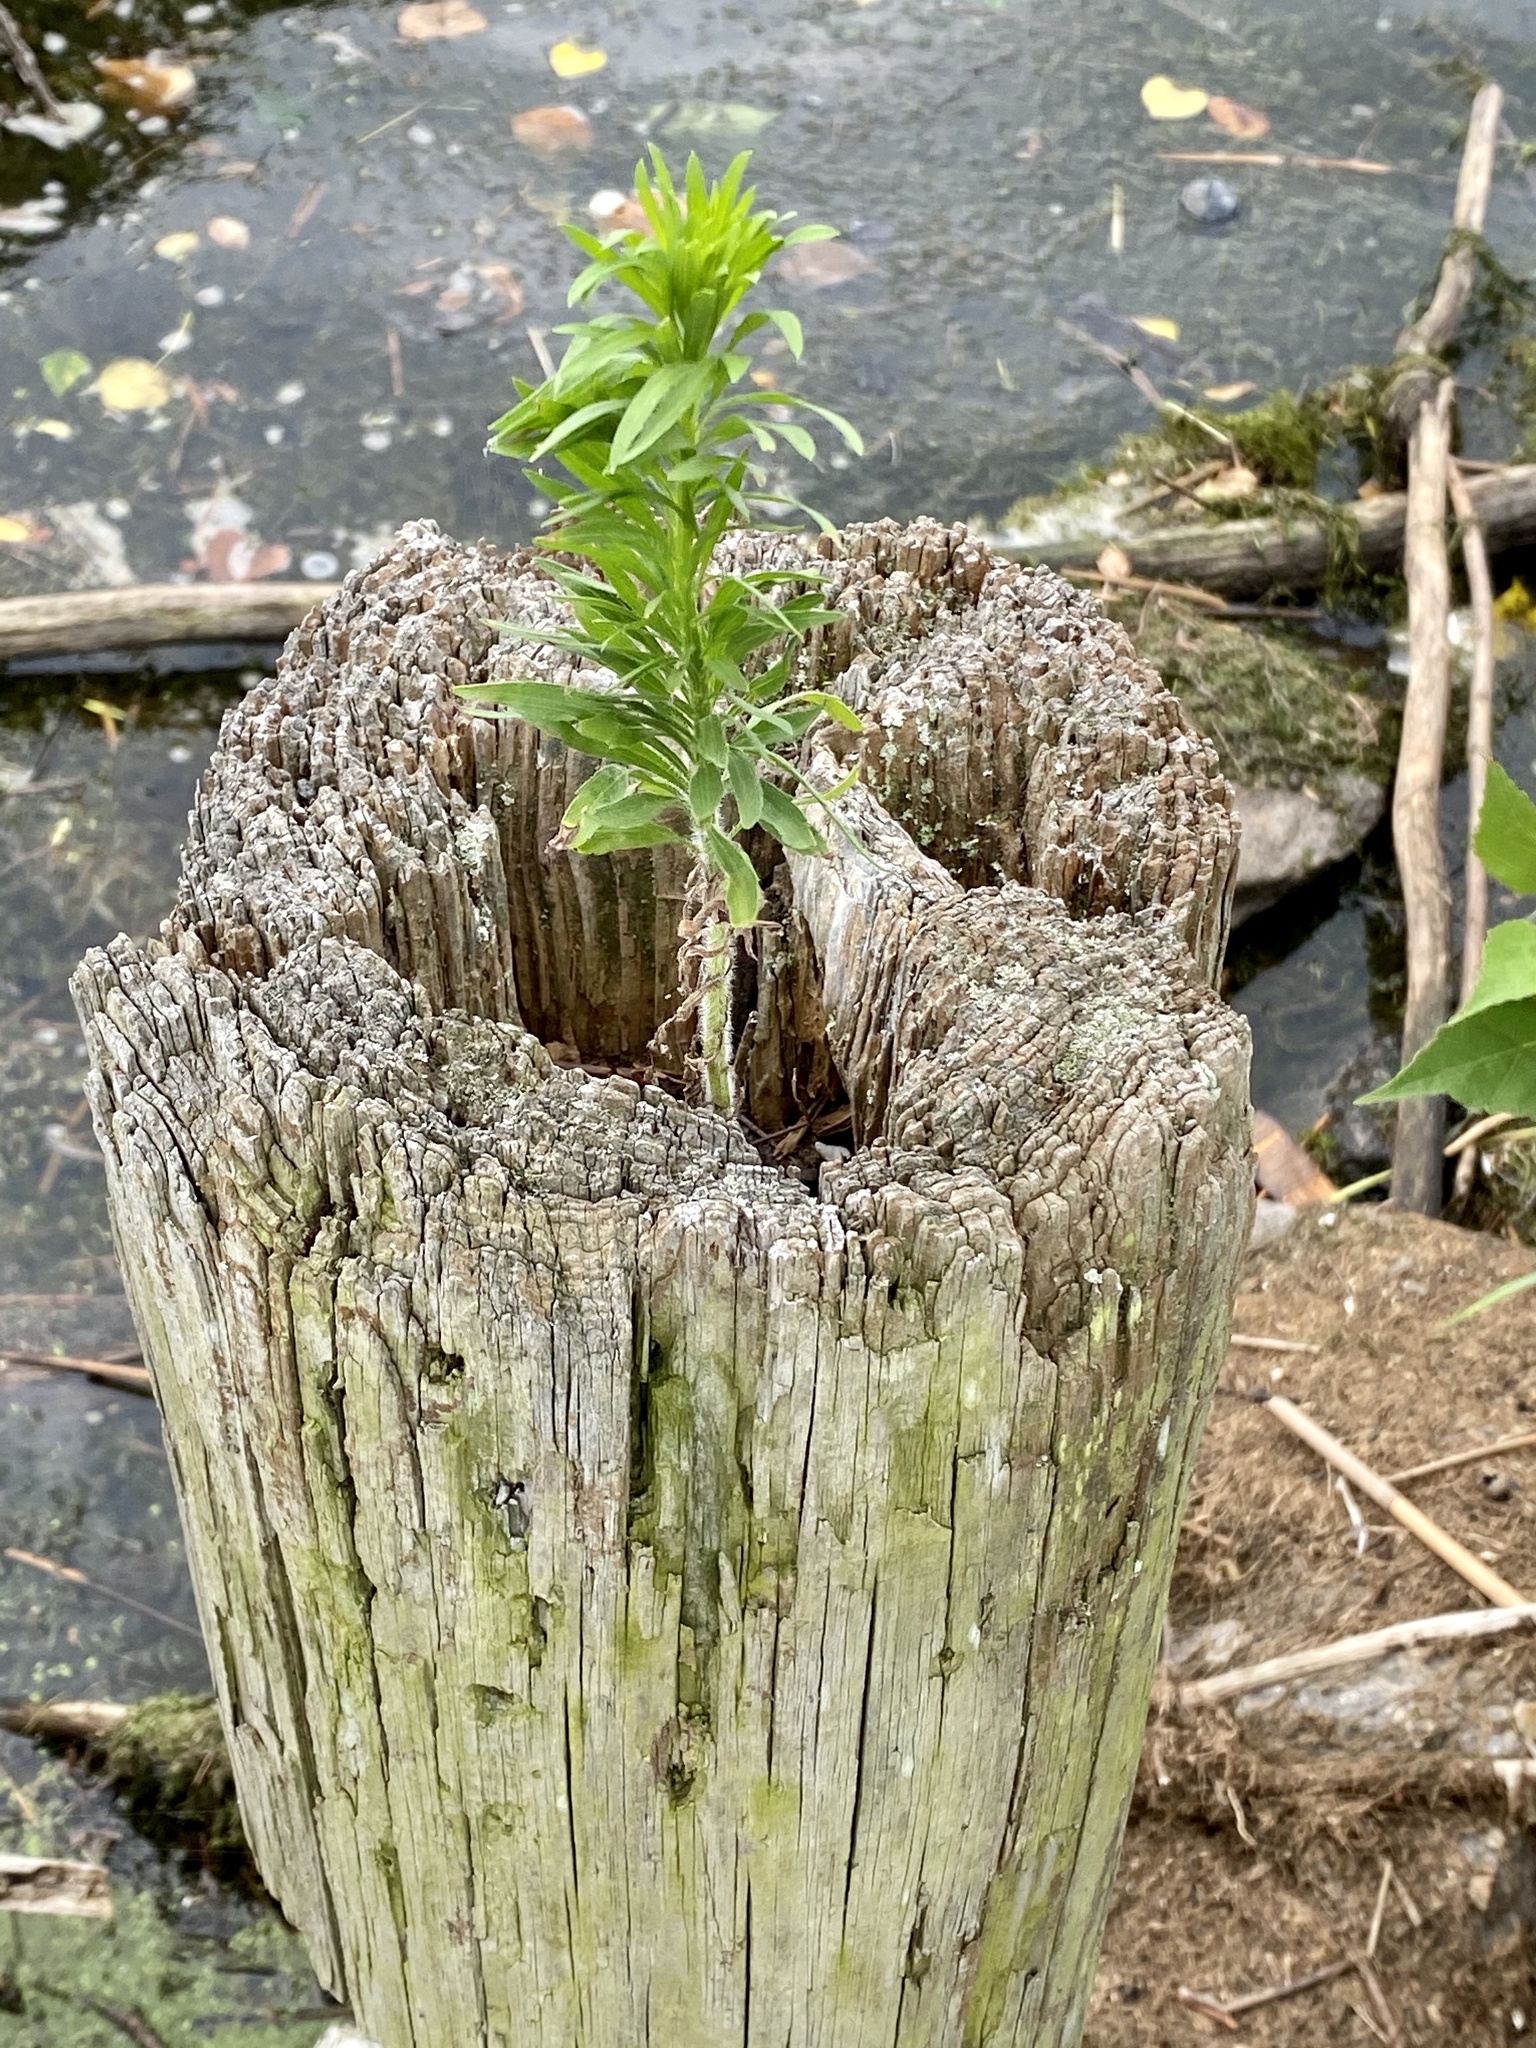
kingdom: Plantae
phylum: Tracheophyta
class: Magnoliopsida
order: Asterales
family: Asteraceae
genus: Erigeron
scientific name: Erigeron canadensis
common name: Canadian fleabane
